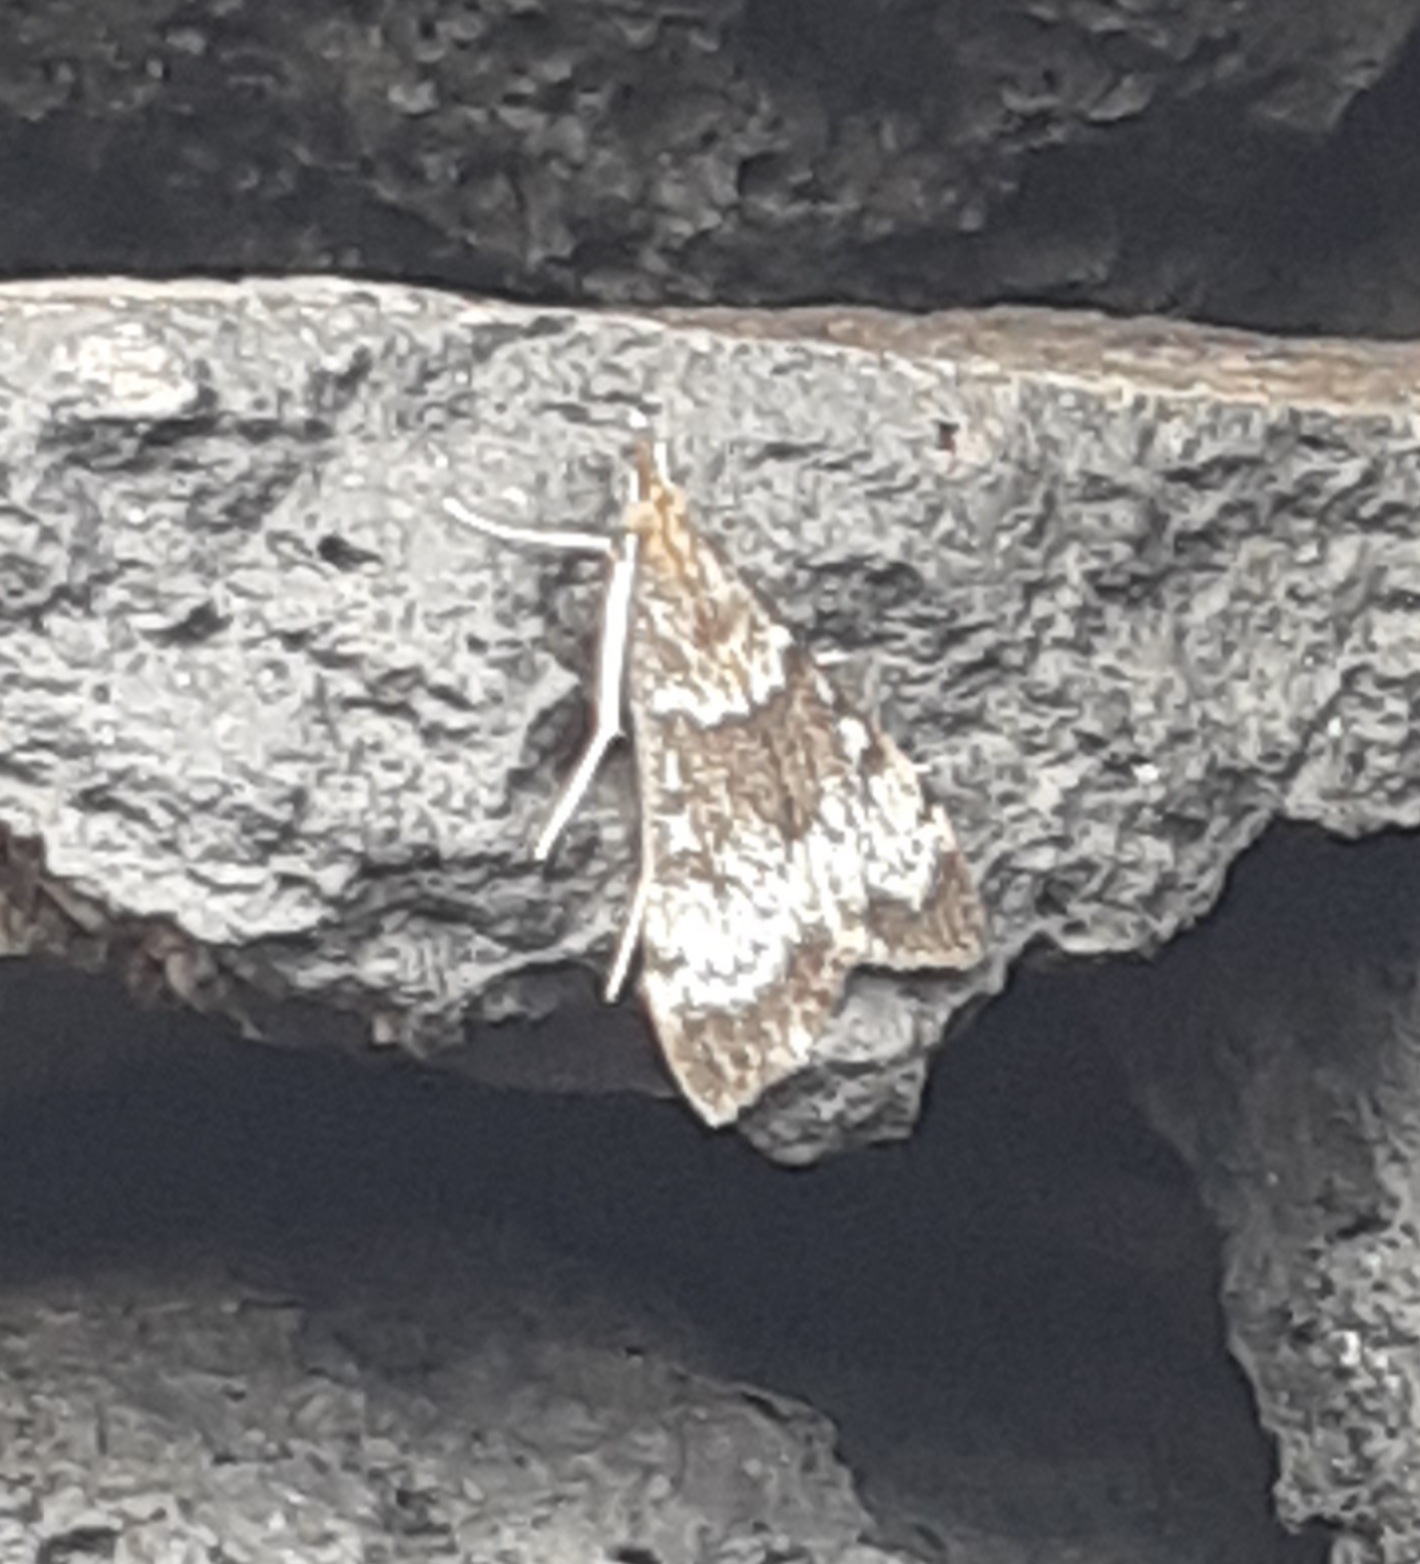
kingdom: Animalia
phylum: Arthropoda
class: Insecta
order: Lepidoptera
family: Crambidae
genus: Uresiphita
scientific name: Uresiphita gilvata
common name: Yellow-underwing pearl
